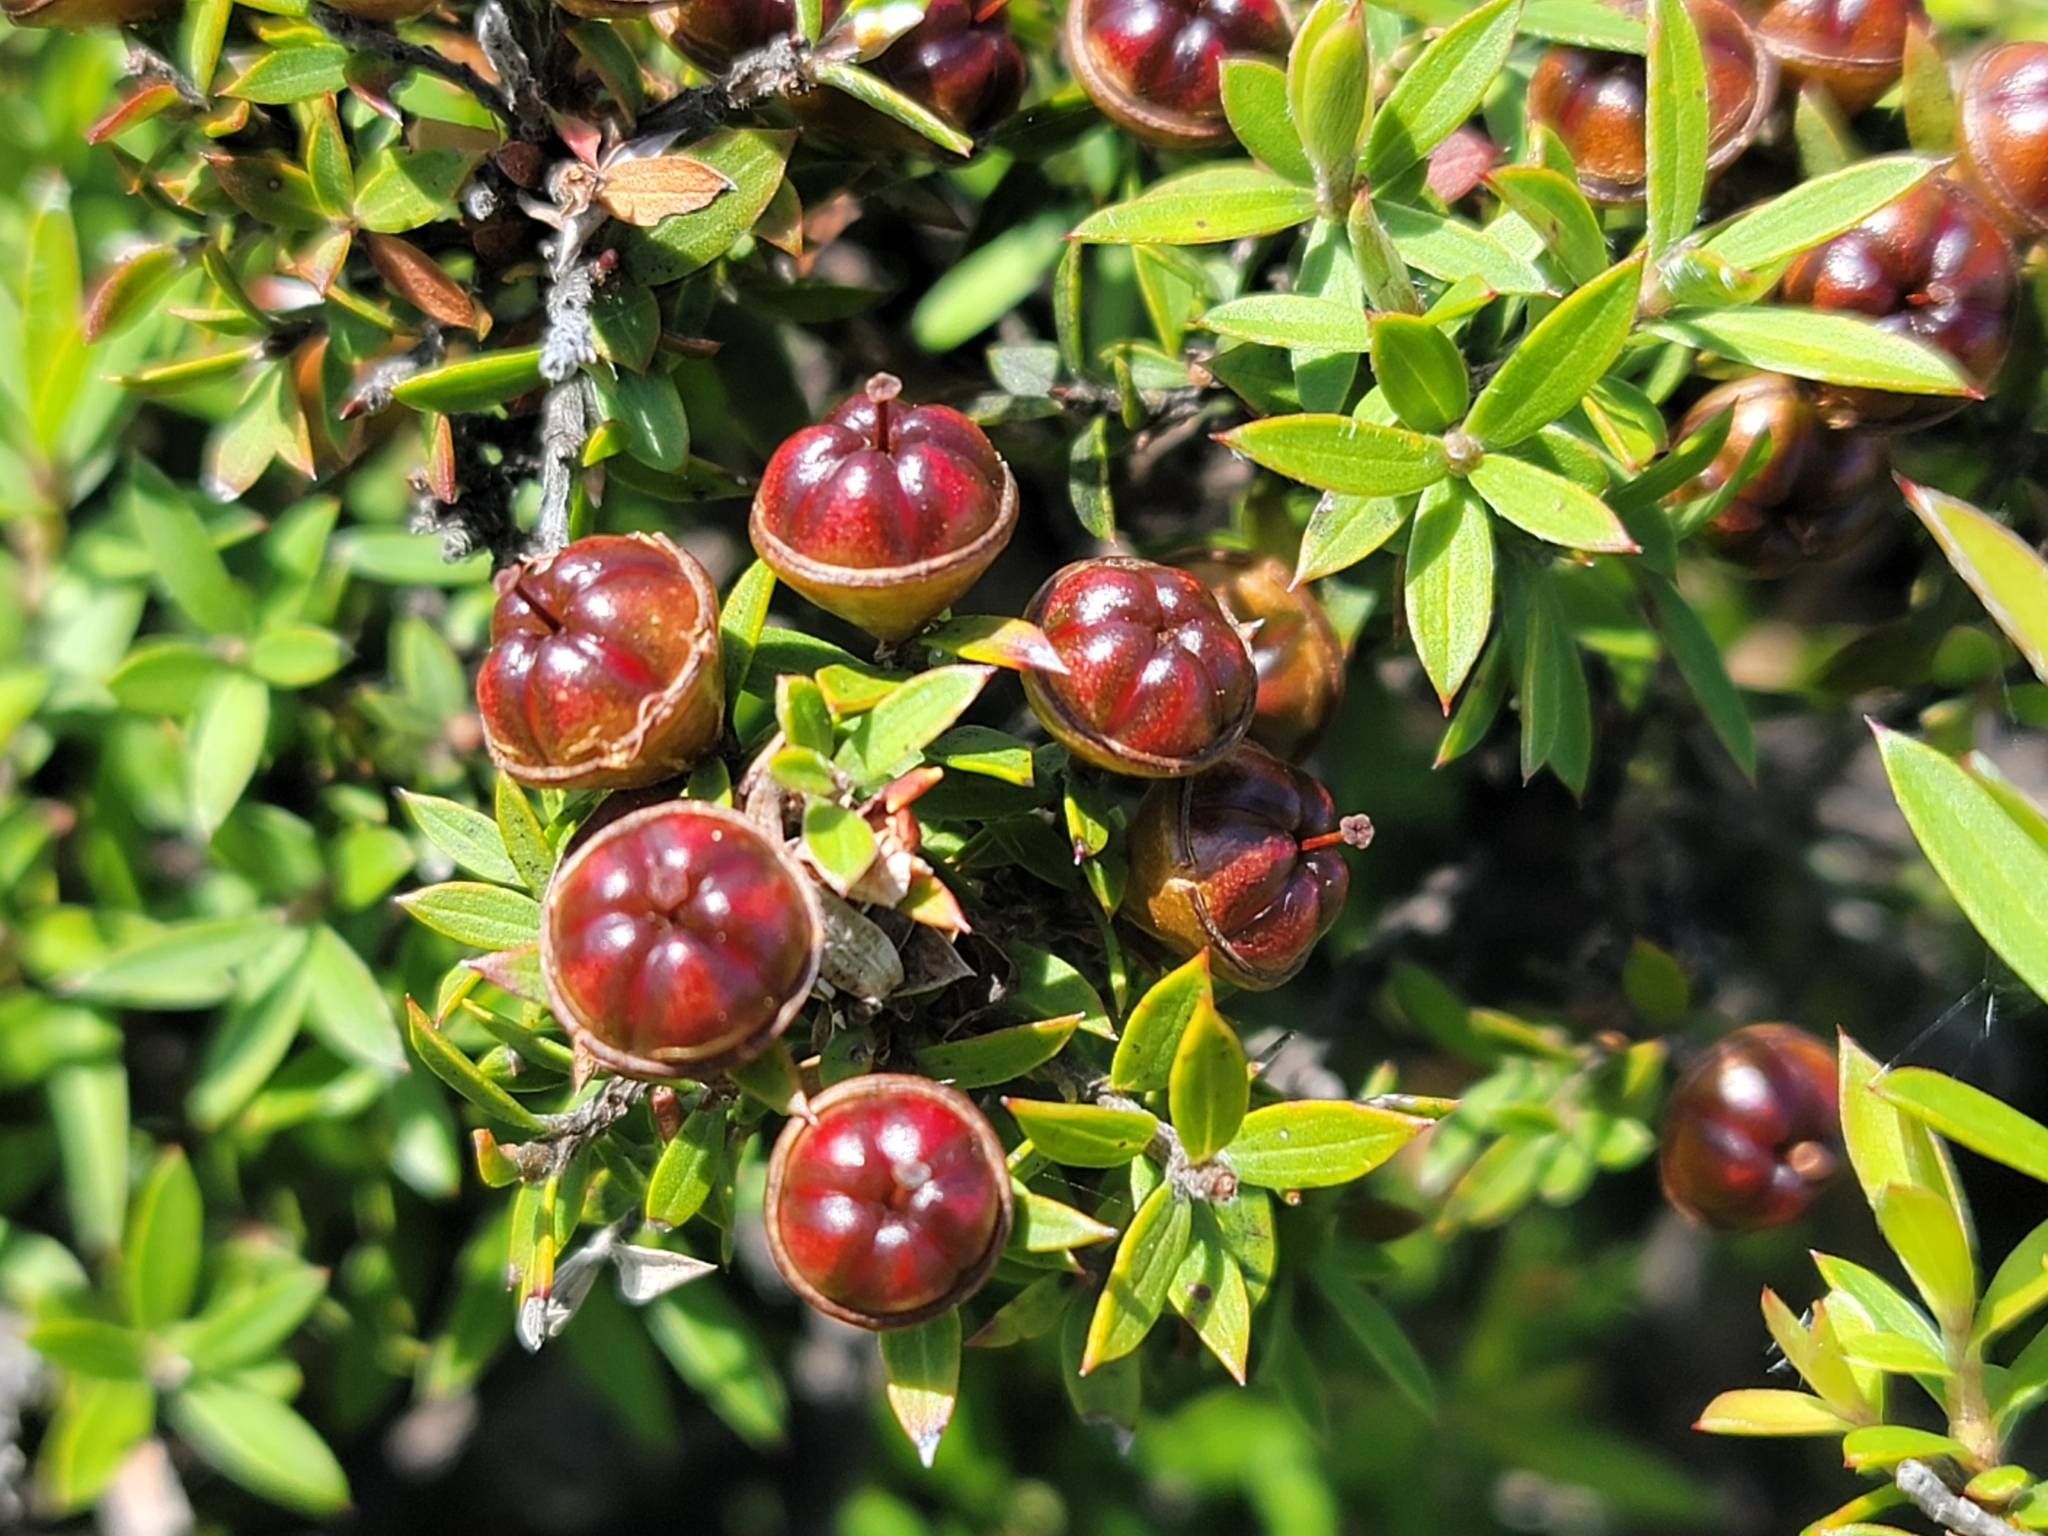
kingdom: Plantae
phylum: Tracheophyta
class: Magnoliopsida
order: Myrtales
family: Myrtaceae
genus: Leptospermum
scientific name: Leptospermum scoparium
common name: Broom tea-tree
